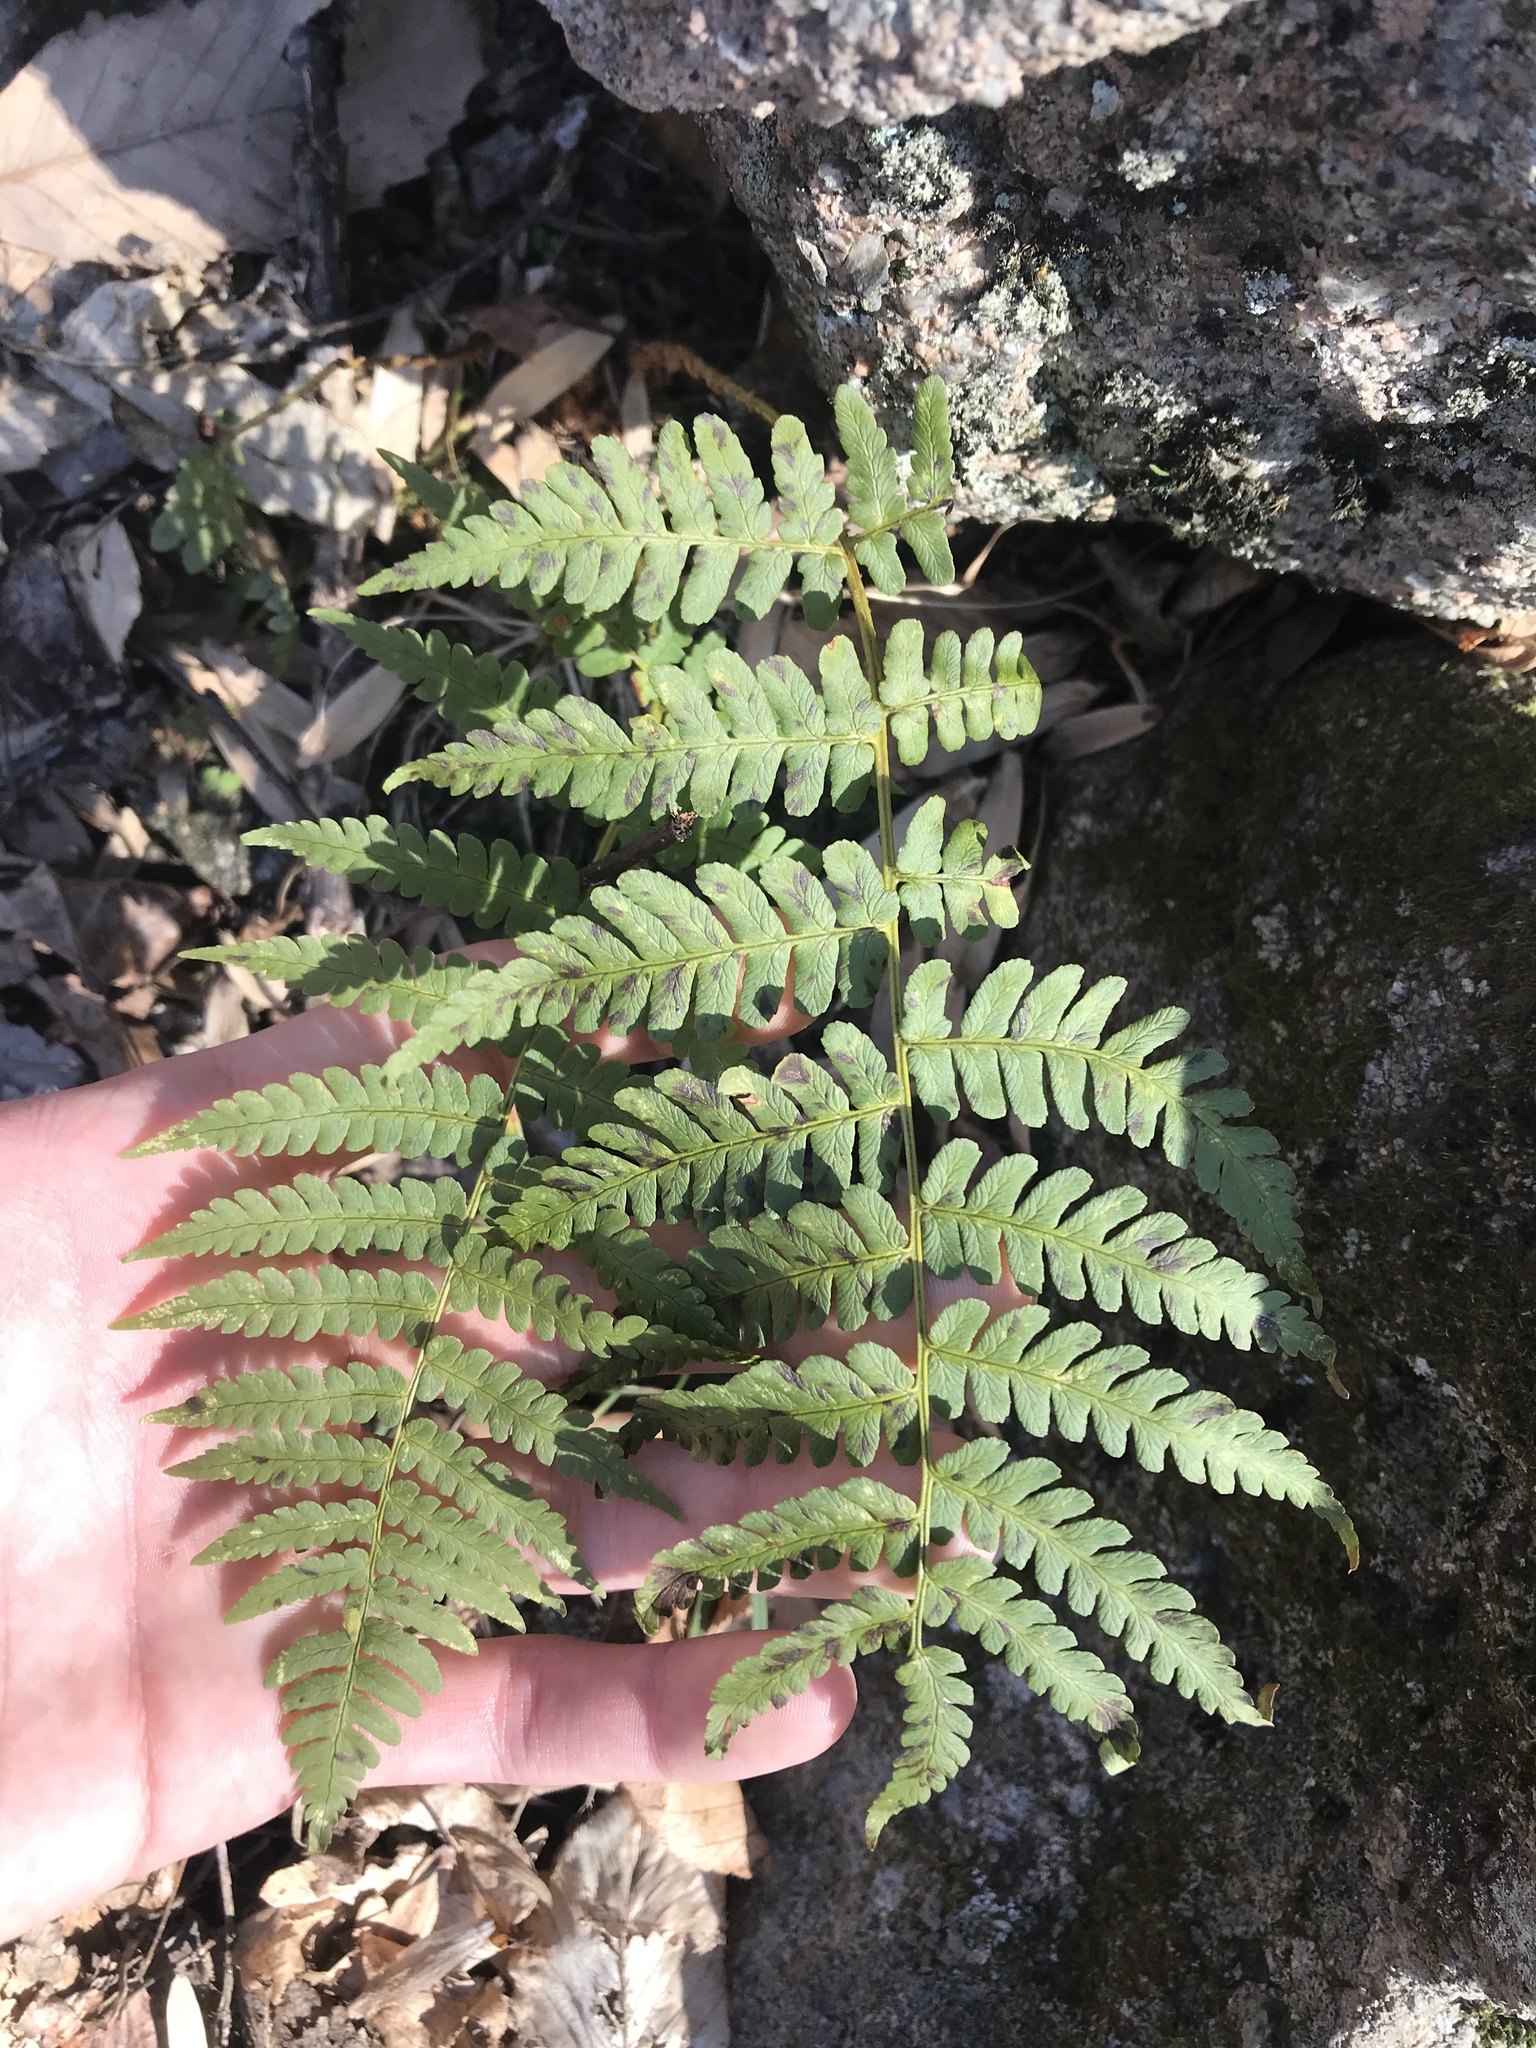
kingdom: Plantae
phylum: Tracheophyta
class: Polypodiopsida
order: Polypodiales
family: Dryopteridaceae
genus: Dryopteris
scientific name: Dryopteris marginalis
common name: Marginal wood fern
